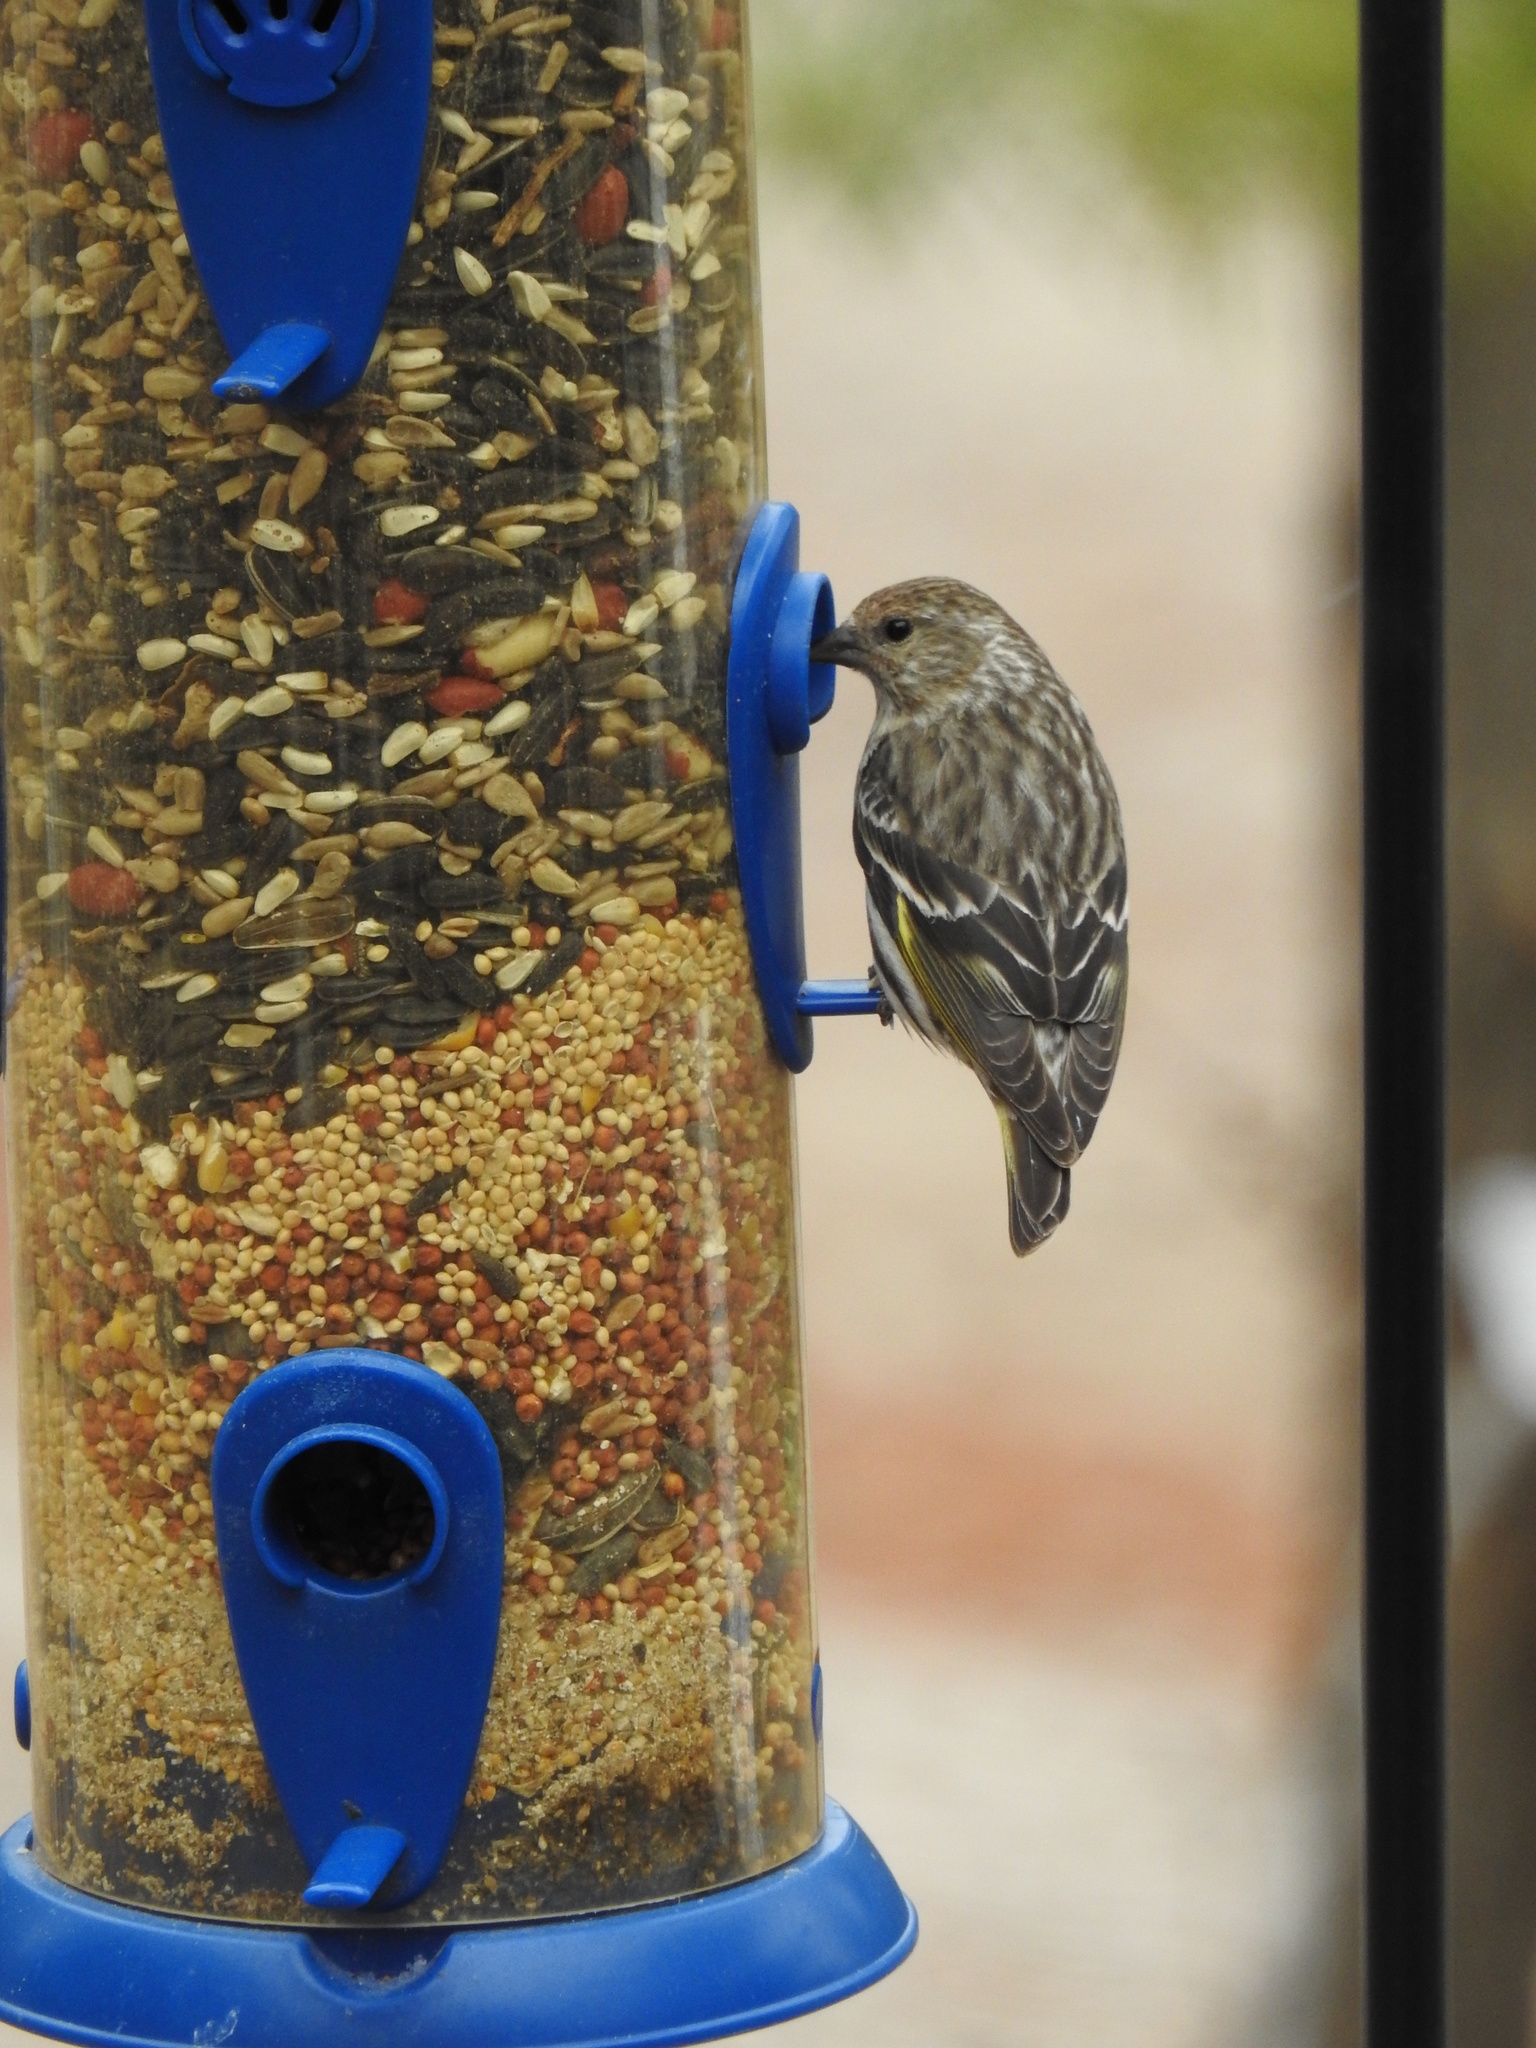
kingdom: Animalia
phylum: Chordata
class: Aves
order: Passeriformes
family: Fringillidae
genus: Spinus
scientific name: Spinus pinus
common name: Pine siskin
